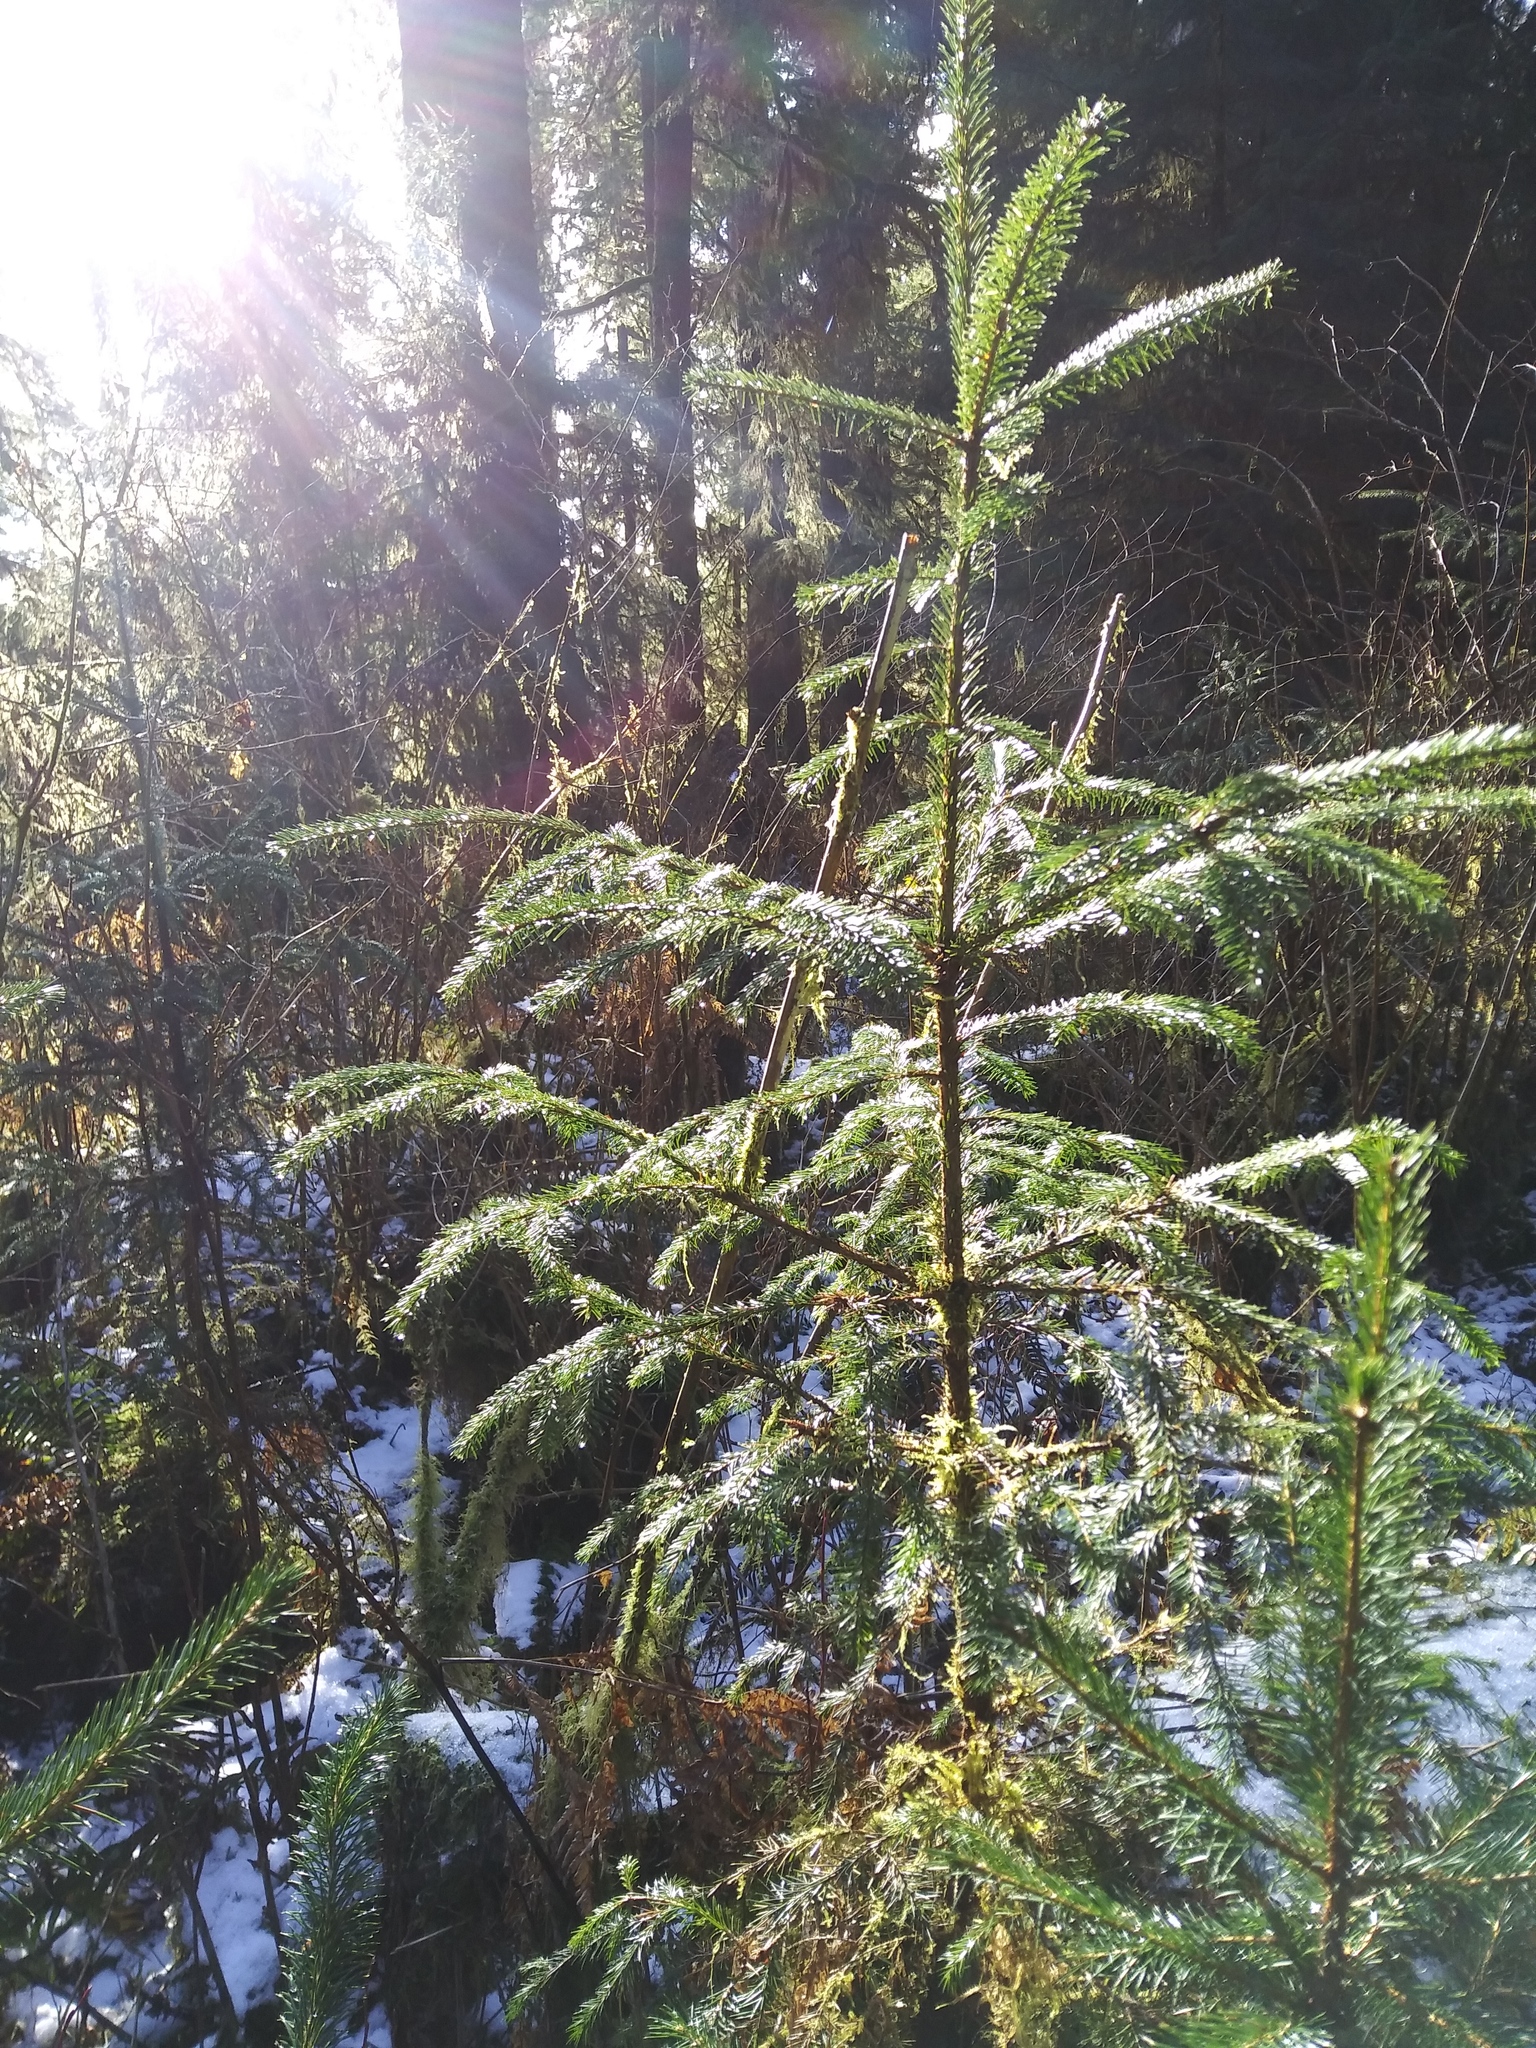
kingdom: Plantae
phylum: Tracheophyta
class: Pinopsida
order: Pinales
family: Pinaceae
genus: Picea
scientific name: Picea sitchensis
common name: Sitka spruce
